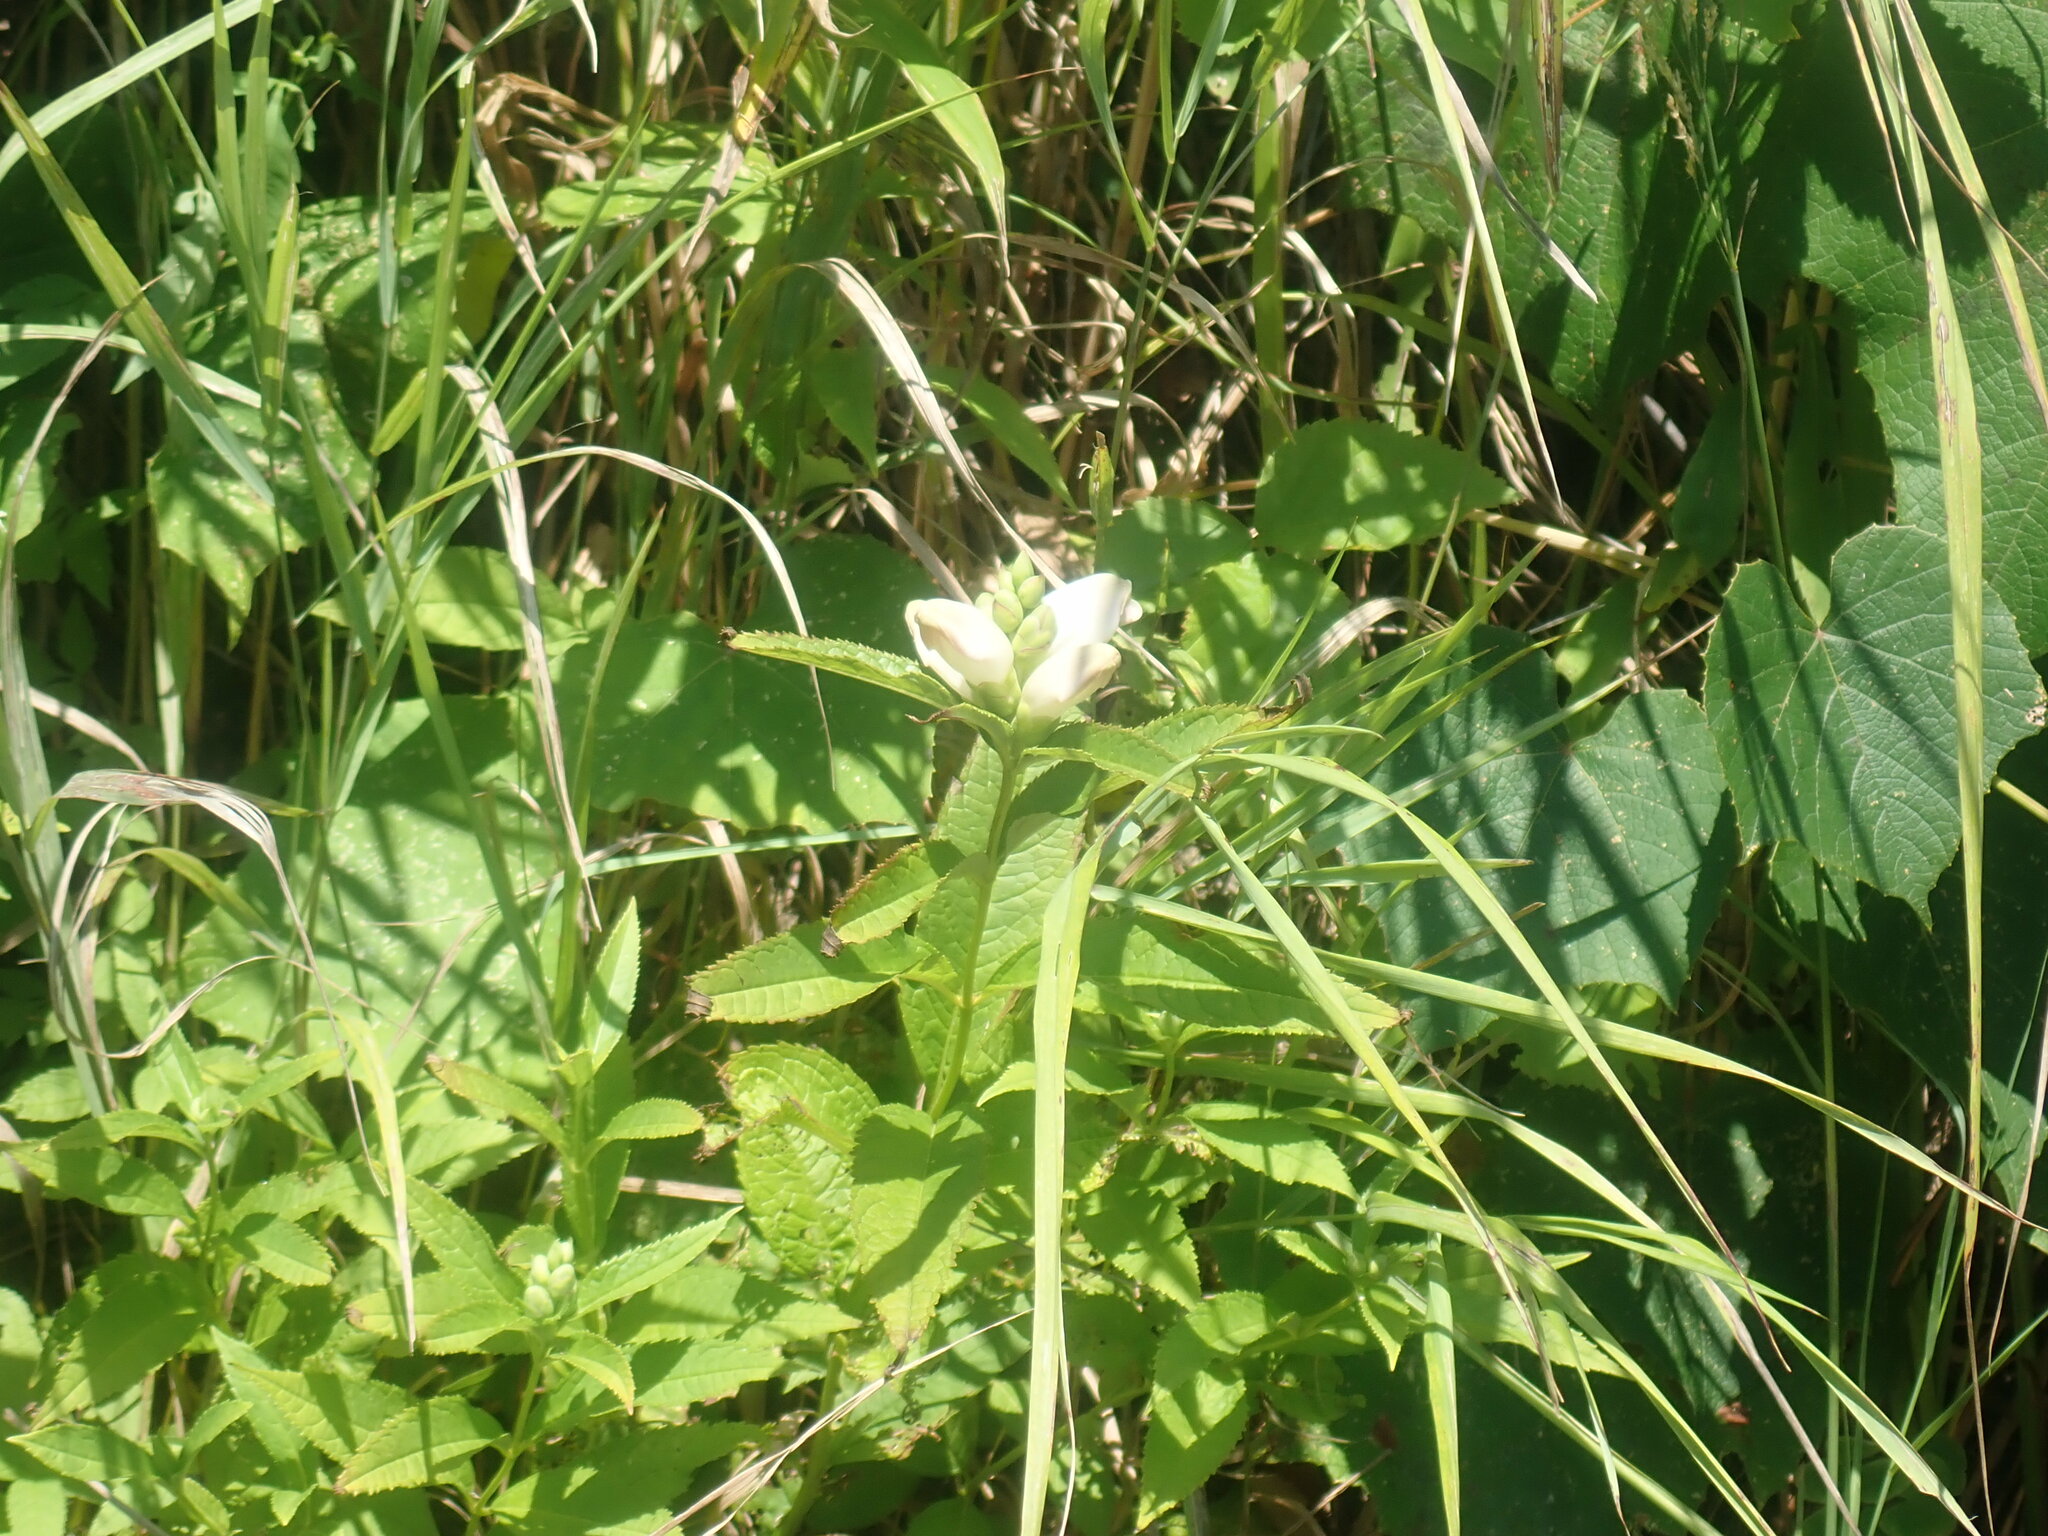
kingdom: Plantae
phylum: Tracheophyta
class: Magnoliopsida
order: Lamiales
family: Plantaginaceae
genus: Chelone
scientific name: Chelone glabra
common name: Snakehead
